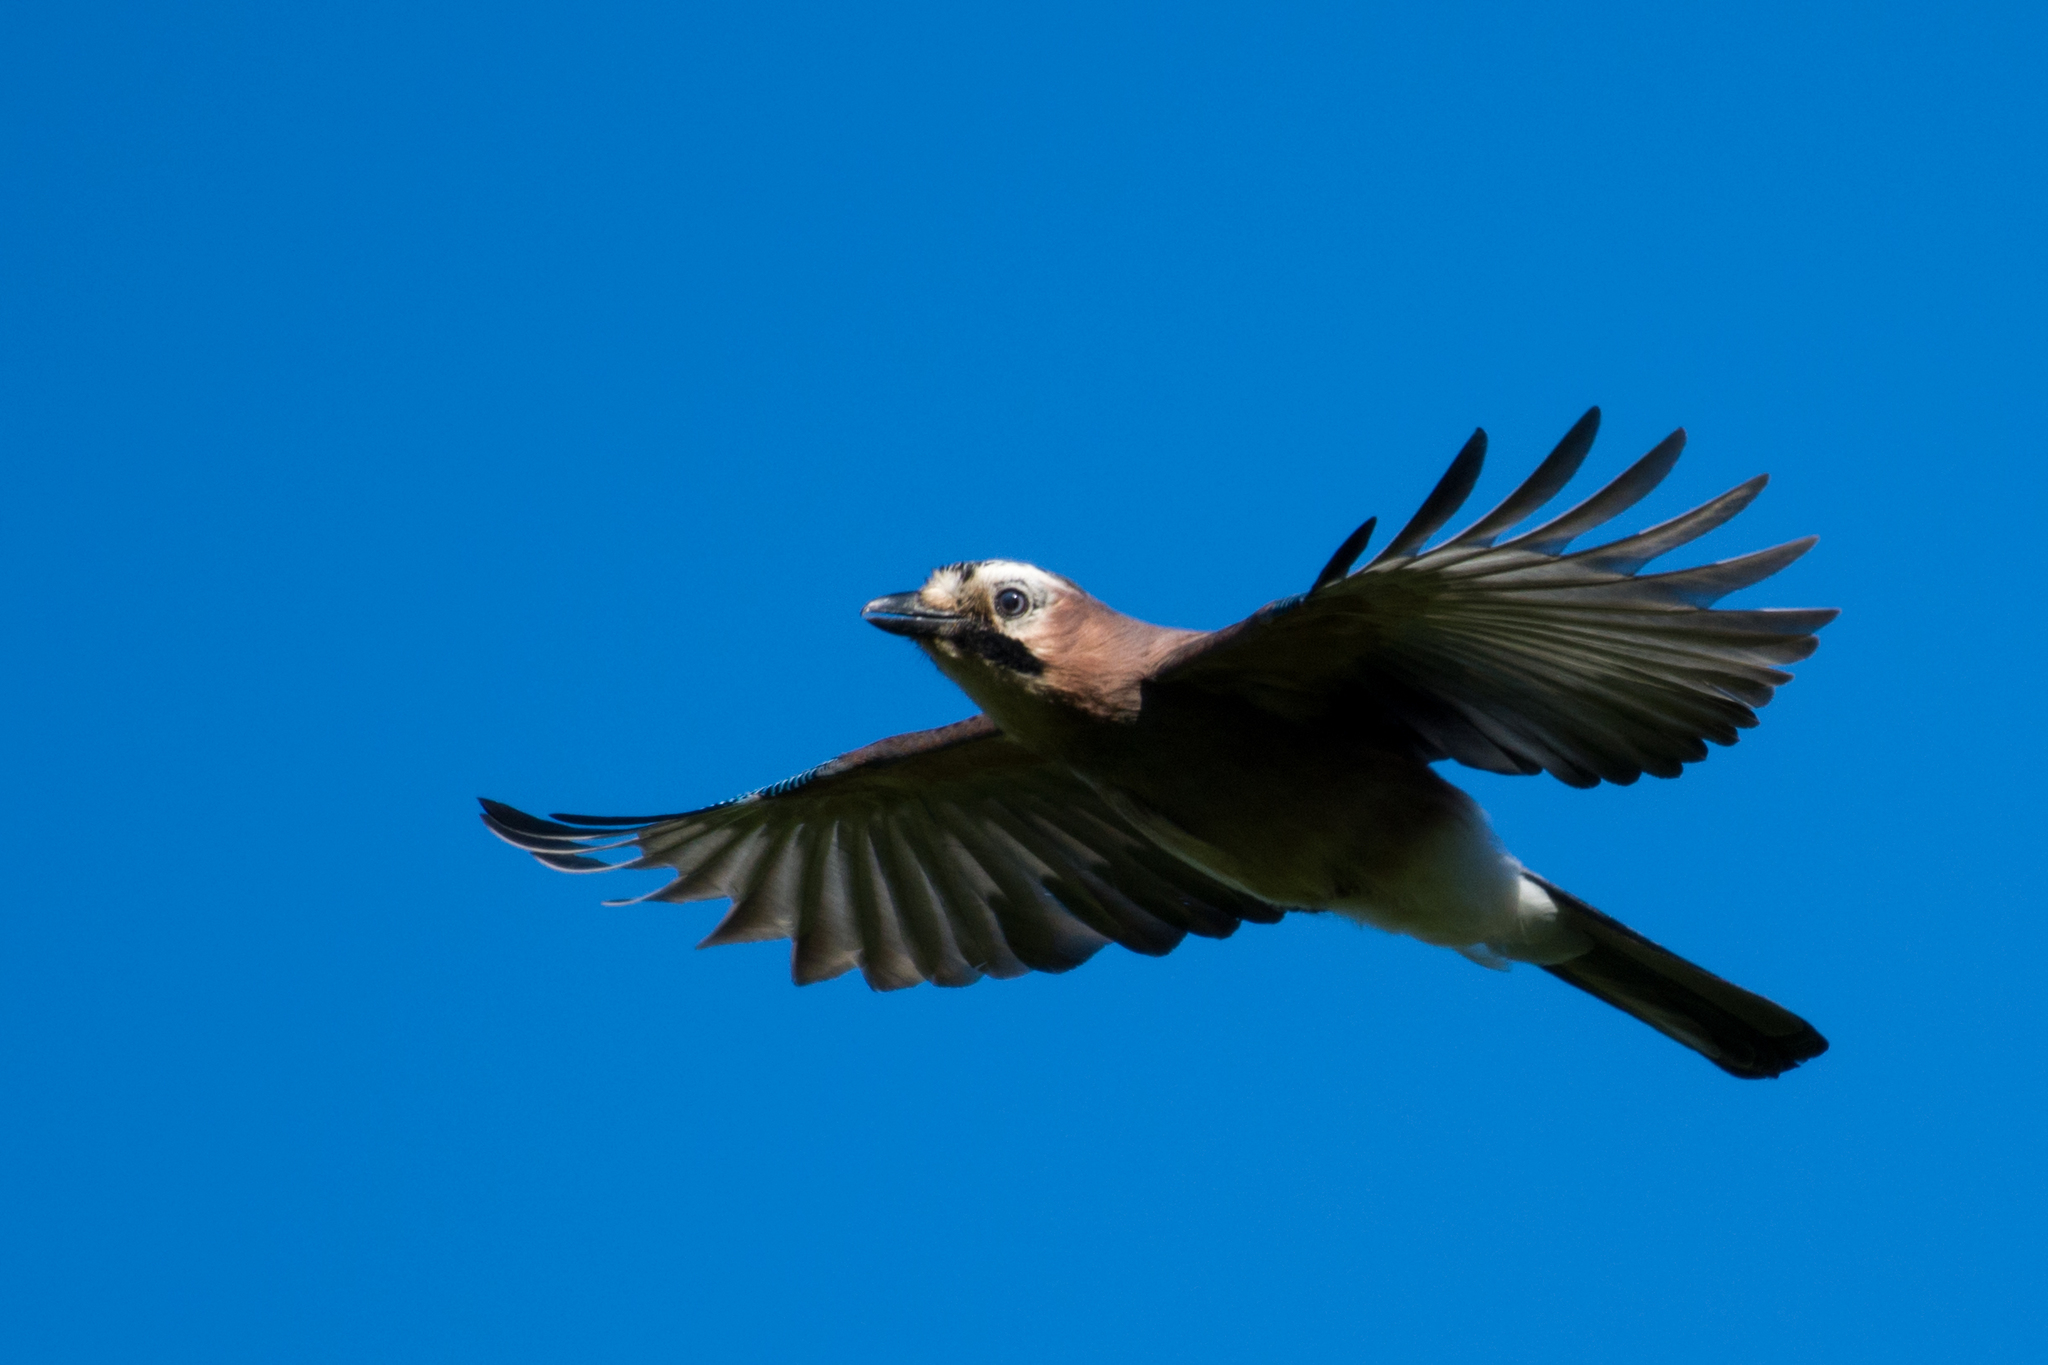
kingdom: Animalia
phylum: Chordata
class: Aves
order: Passeriformes
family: Corvidae
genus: Garrulus
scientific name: Garrulus glandarius
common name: Eurasian jay
